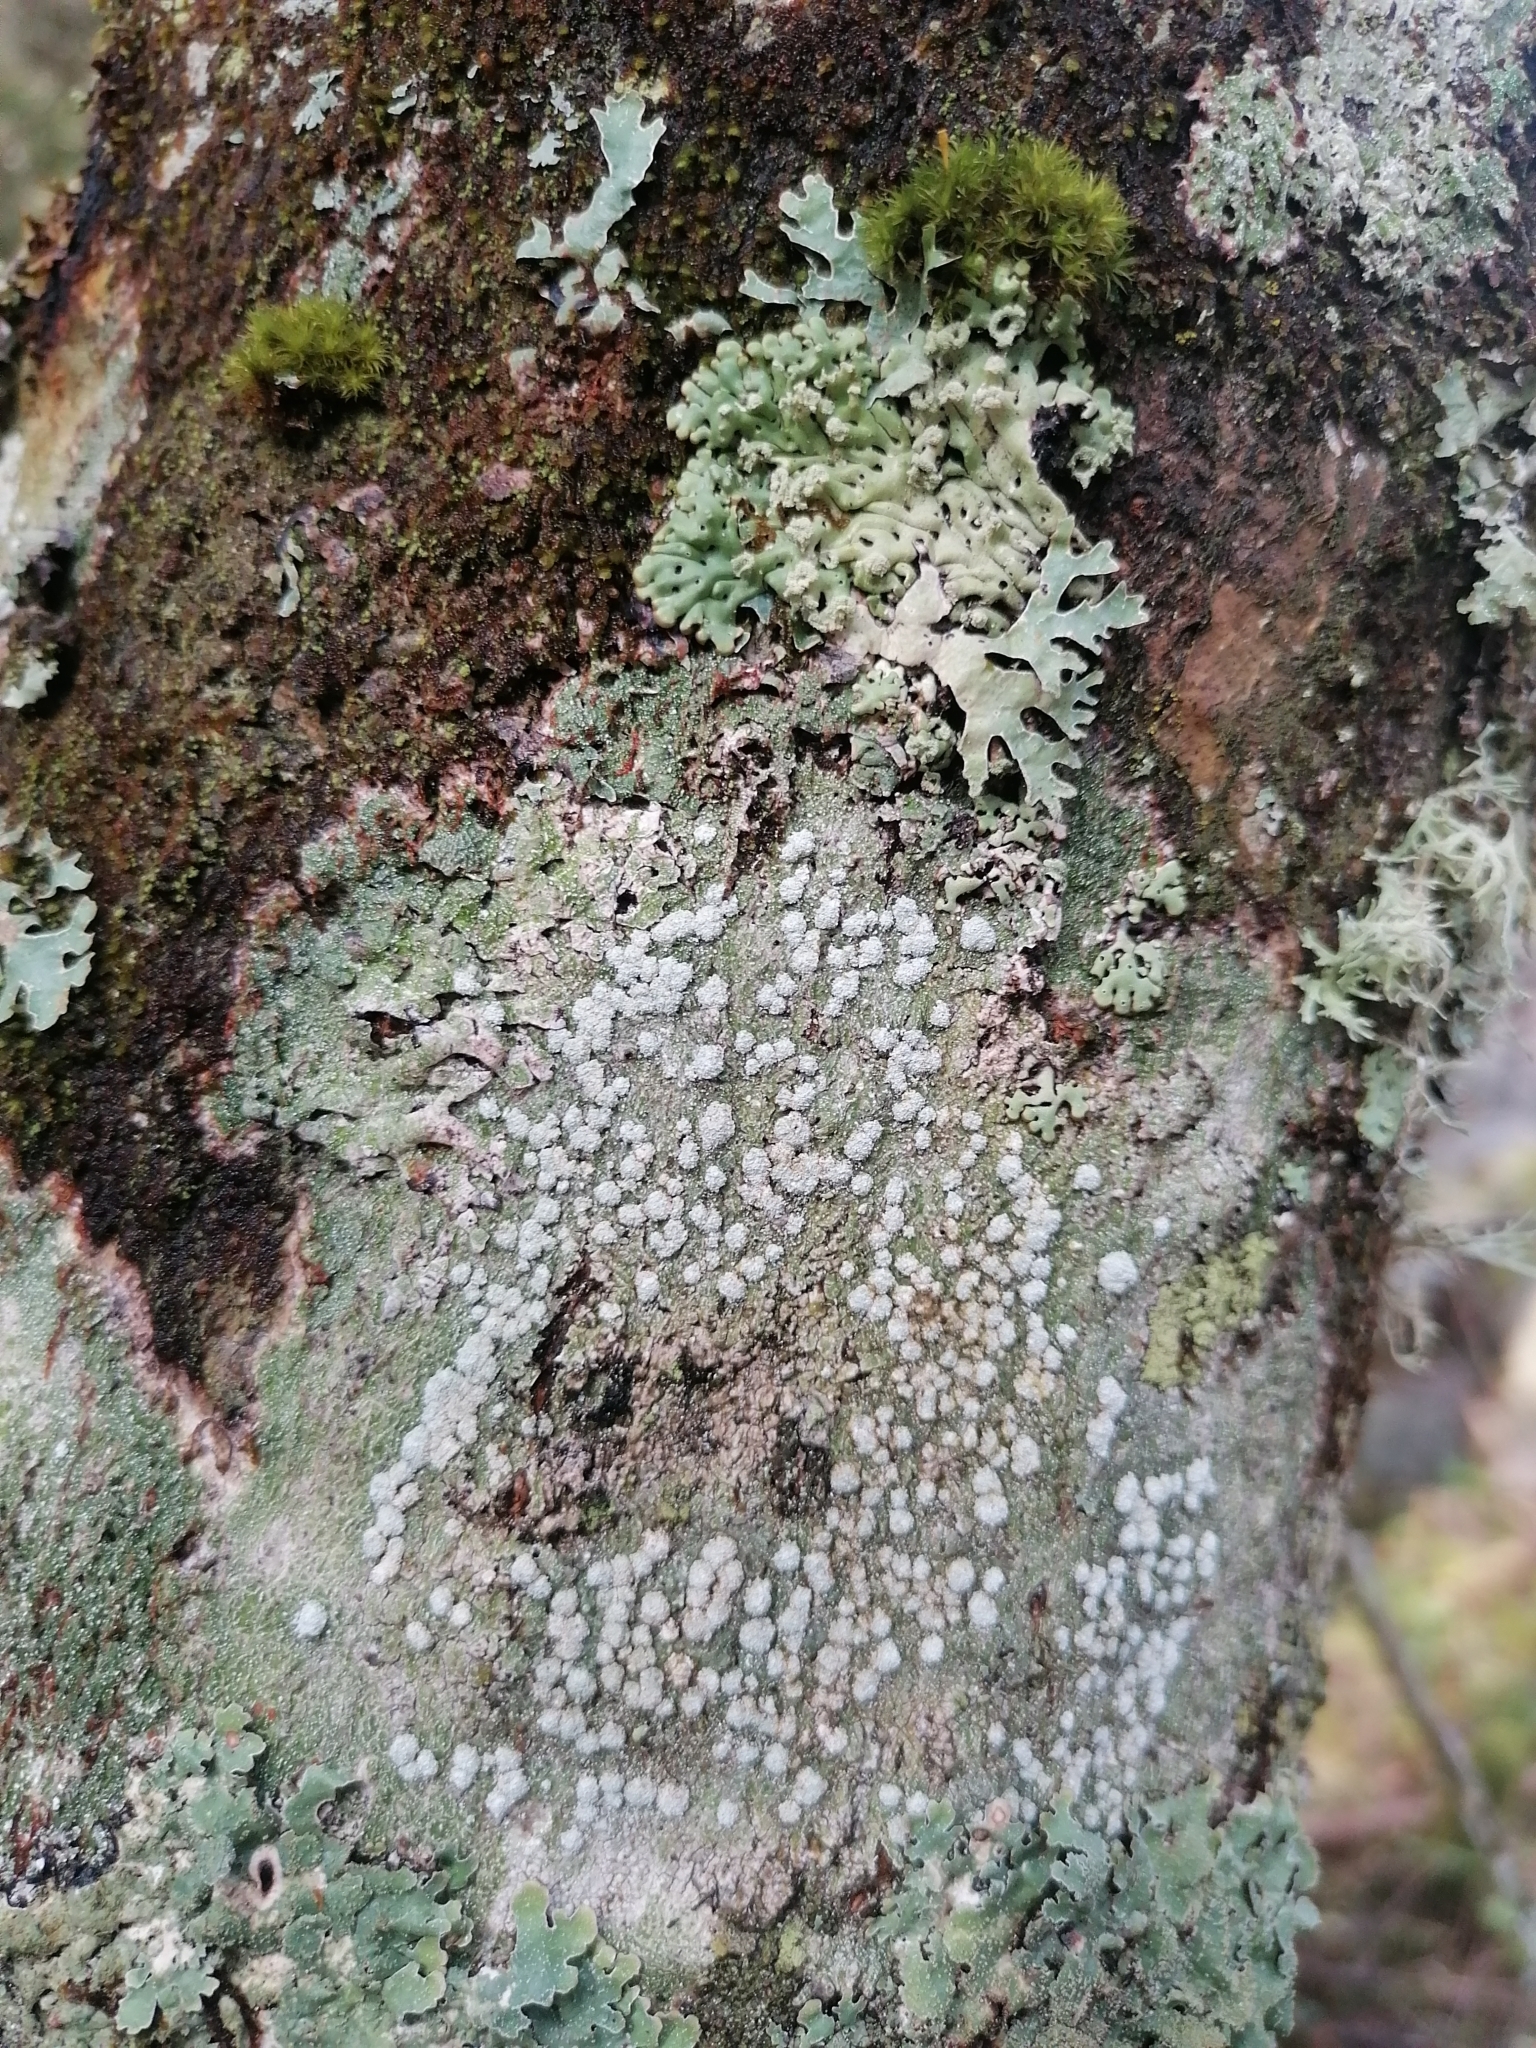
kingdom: Fungi
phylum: Ascomycota
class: Lecanoromycetes
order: Pertusariales
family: Pertusariaceae
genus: Lepra
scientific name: Lepra amara
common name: Bitter wart lichen
